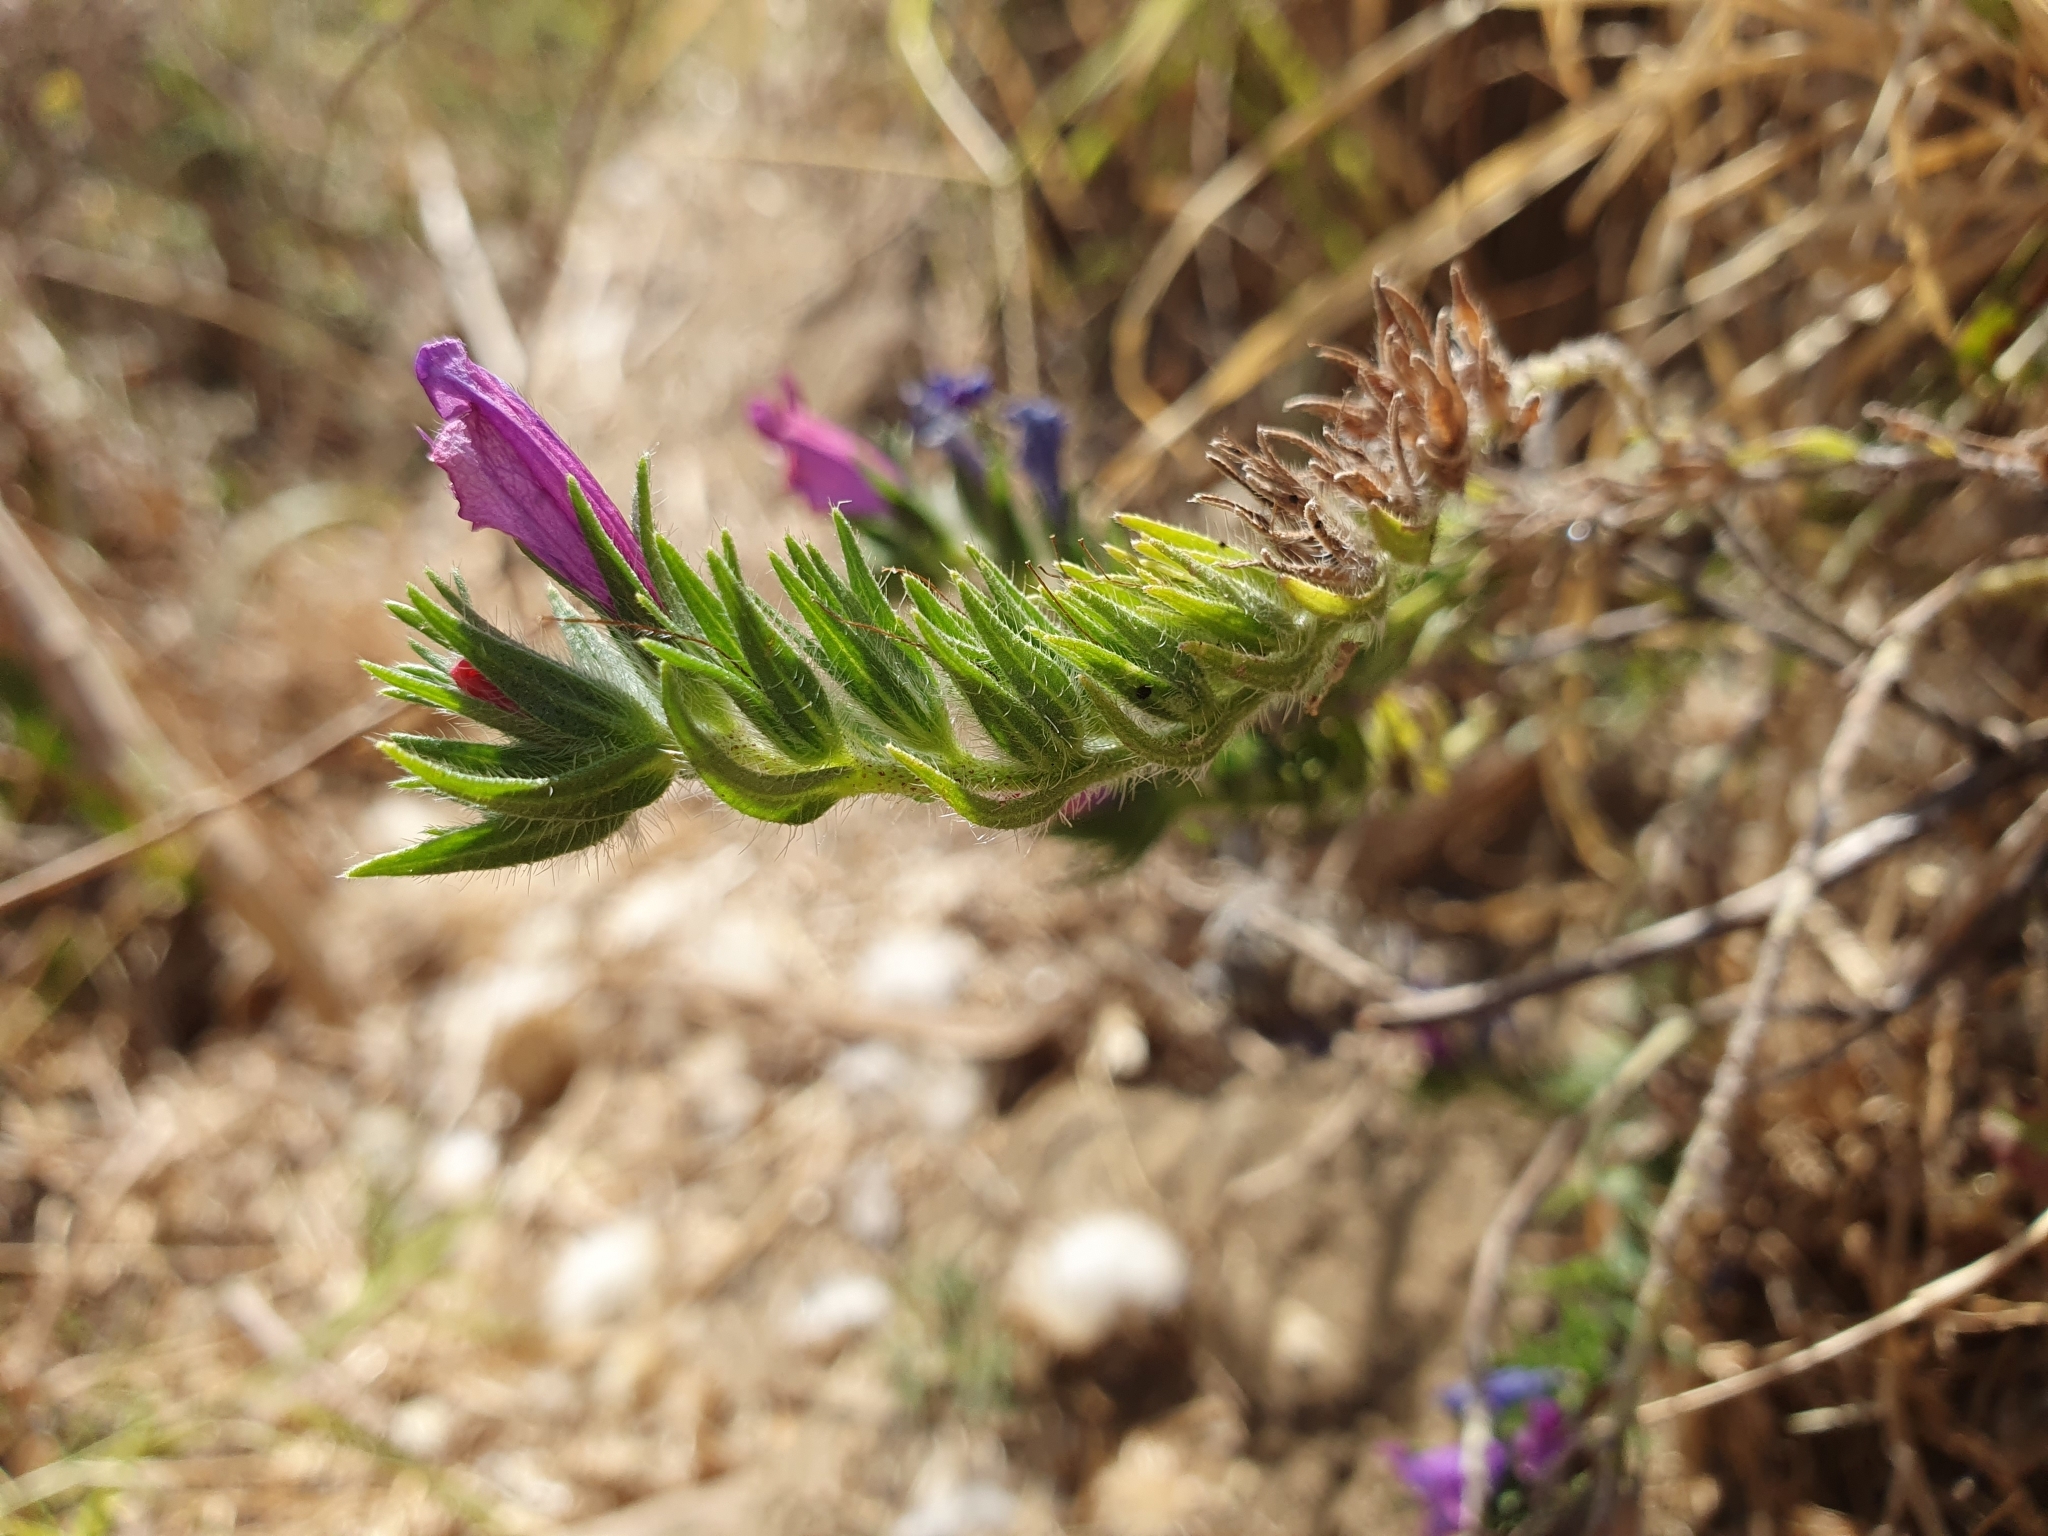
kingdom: Plantae
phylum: Tracheophyta
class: Magnoliopsida
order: Boraginales
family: Boraginaceae
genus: Echium
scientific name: Echium plantagineum
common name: Purple viper's-bugloss
